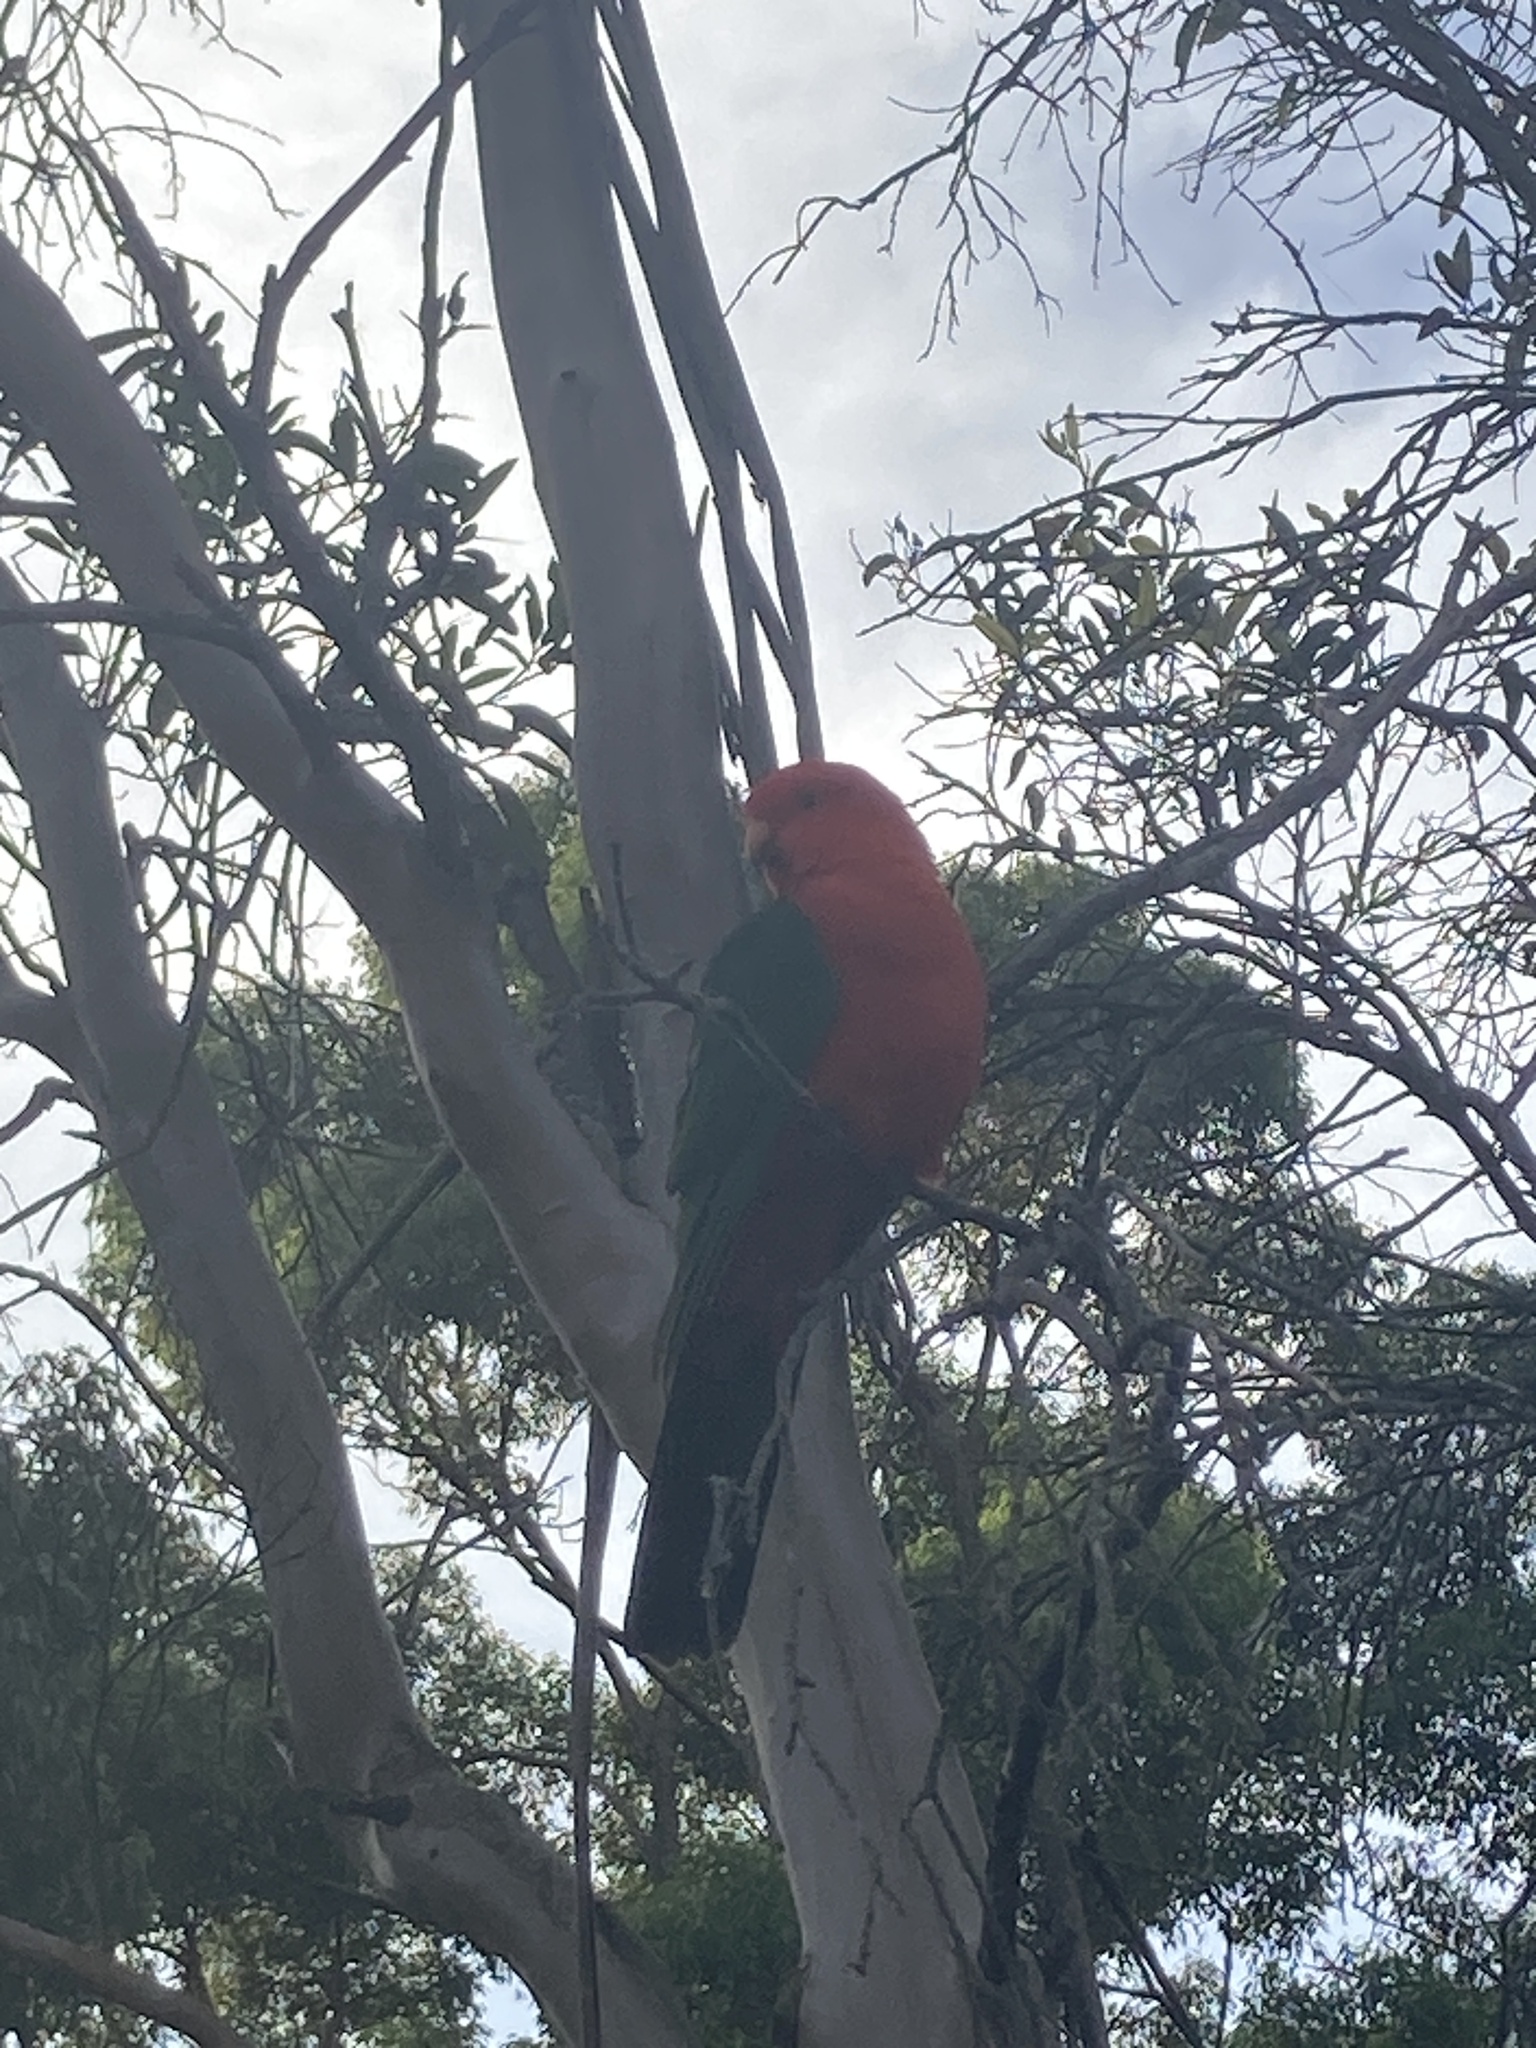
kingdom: Animalia
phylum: Chordata
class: Aves
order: Psittaciformes
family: Psittacidae
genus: Alisterus
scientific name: Alisterus scapularis
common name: Australian king parrot
